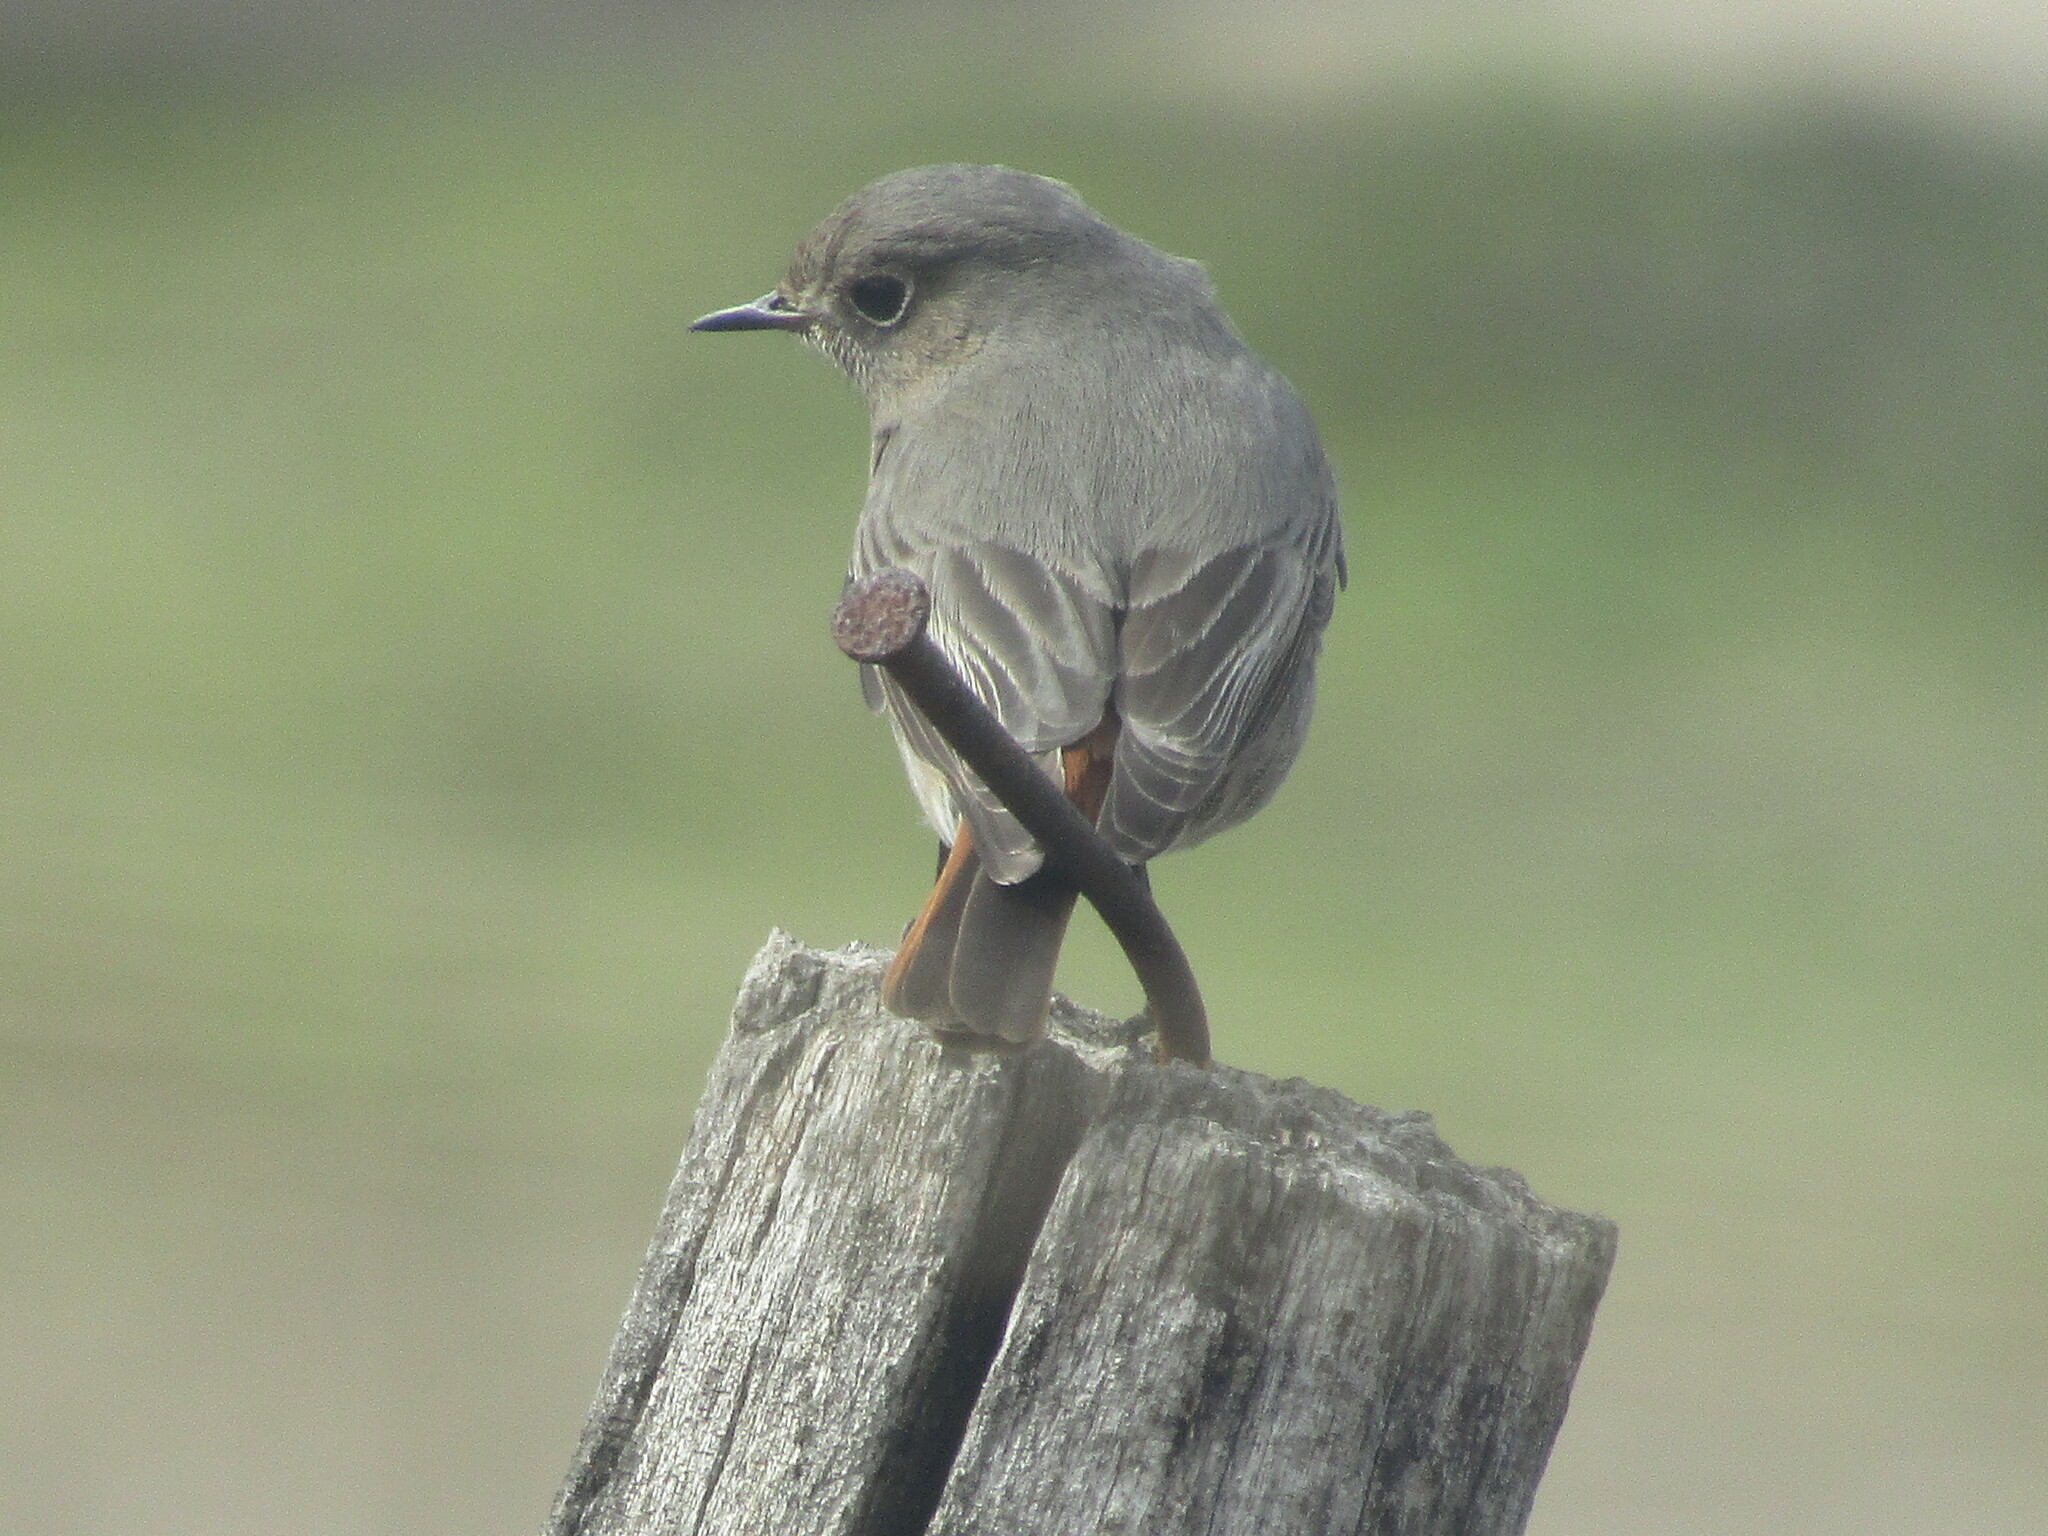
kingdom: Animalia
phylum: Chordata
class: Aves
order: Passeriformes
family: Muscicapidae
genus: Phoenicurus
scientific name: Phoenicurus ochruros
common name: Black redstart
